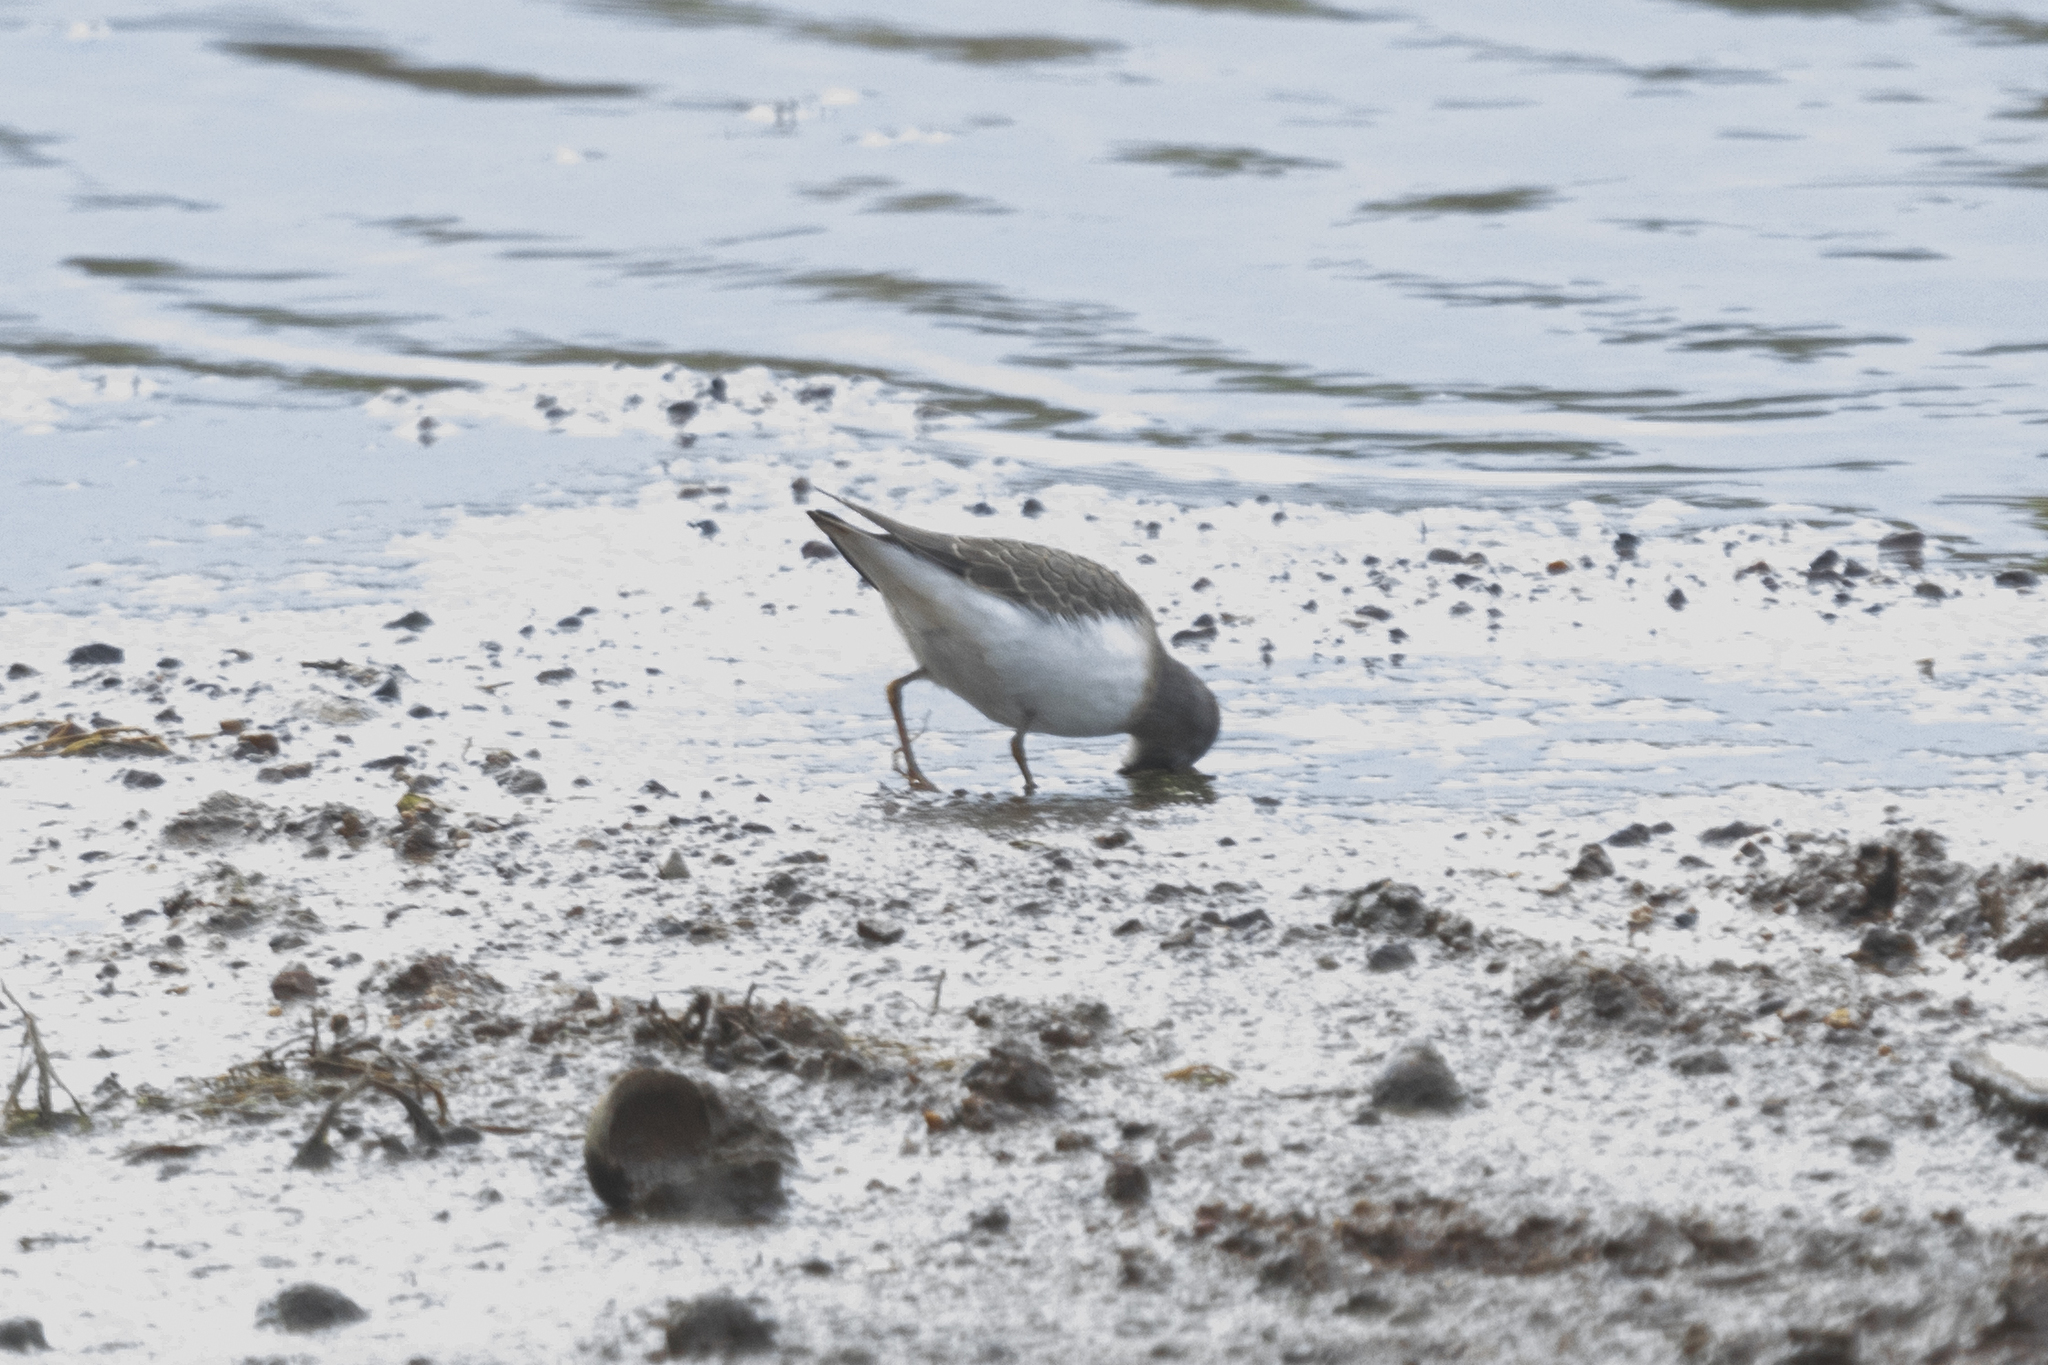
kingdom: Animalia
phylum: Chordata
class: Aves
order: Charadriiformes
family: Scolopacidae
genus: Calidris
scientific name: Calidris temminckii
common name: Temminck's stint
